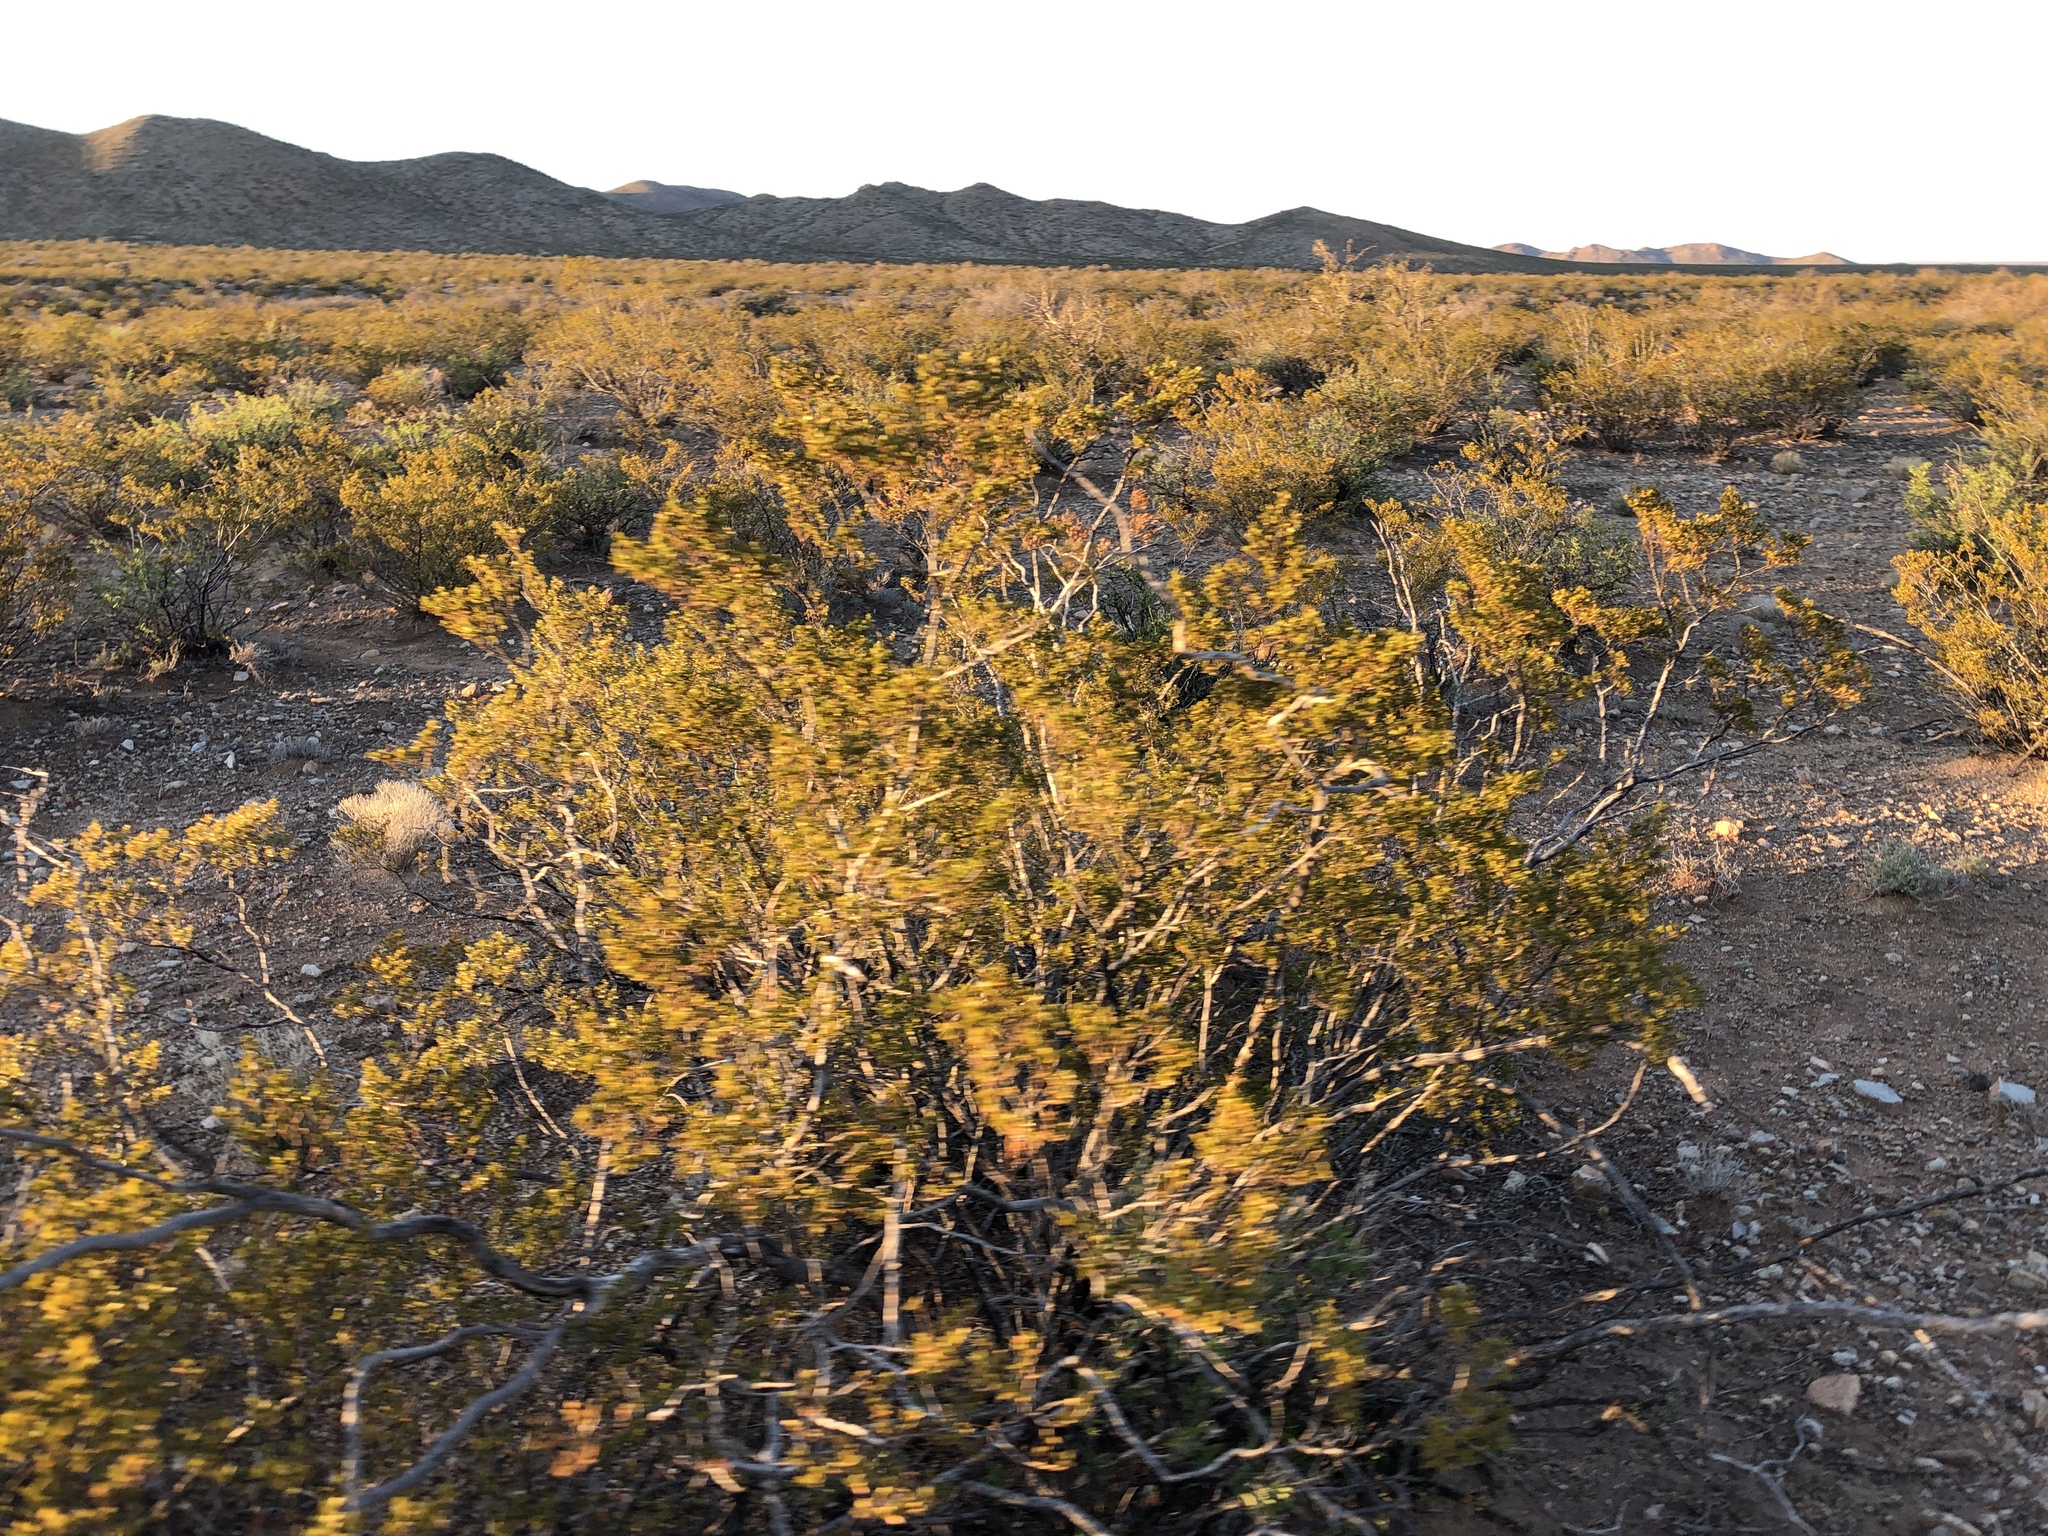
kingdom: Plantae
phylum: Tracheophyta
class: Magnoliopsida
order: Zygophyllales
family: Zygophyllaceae
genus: Larrea
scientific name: Larrea tridentata
